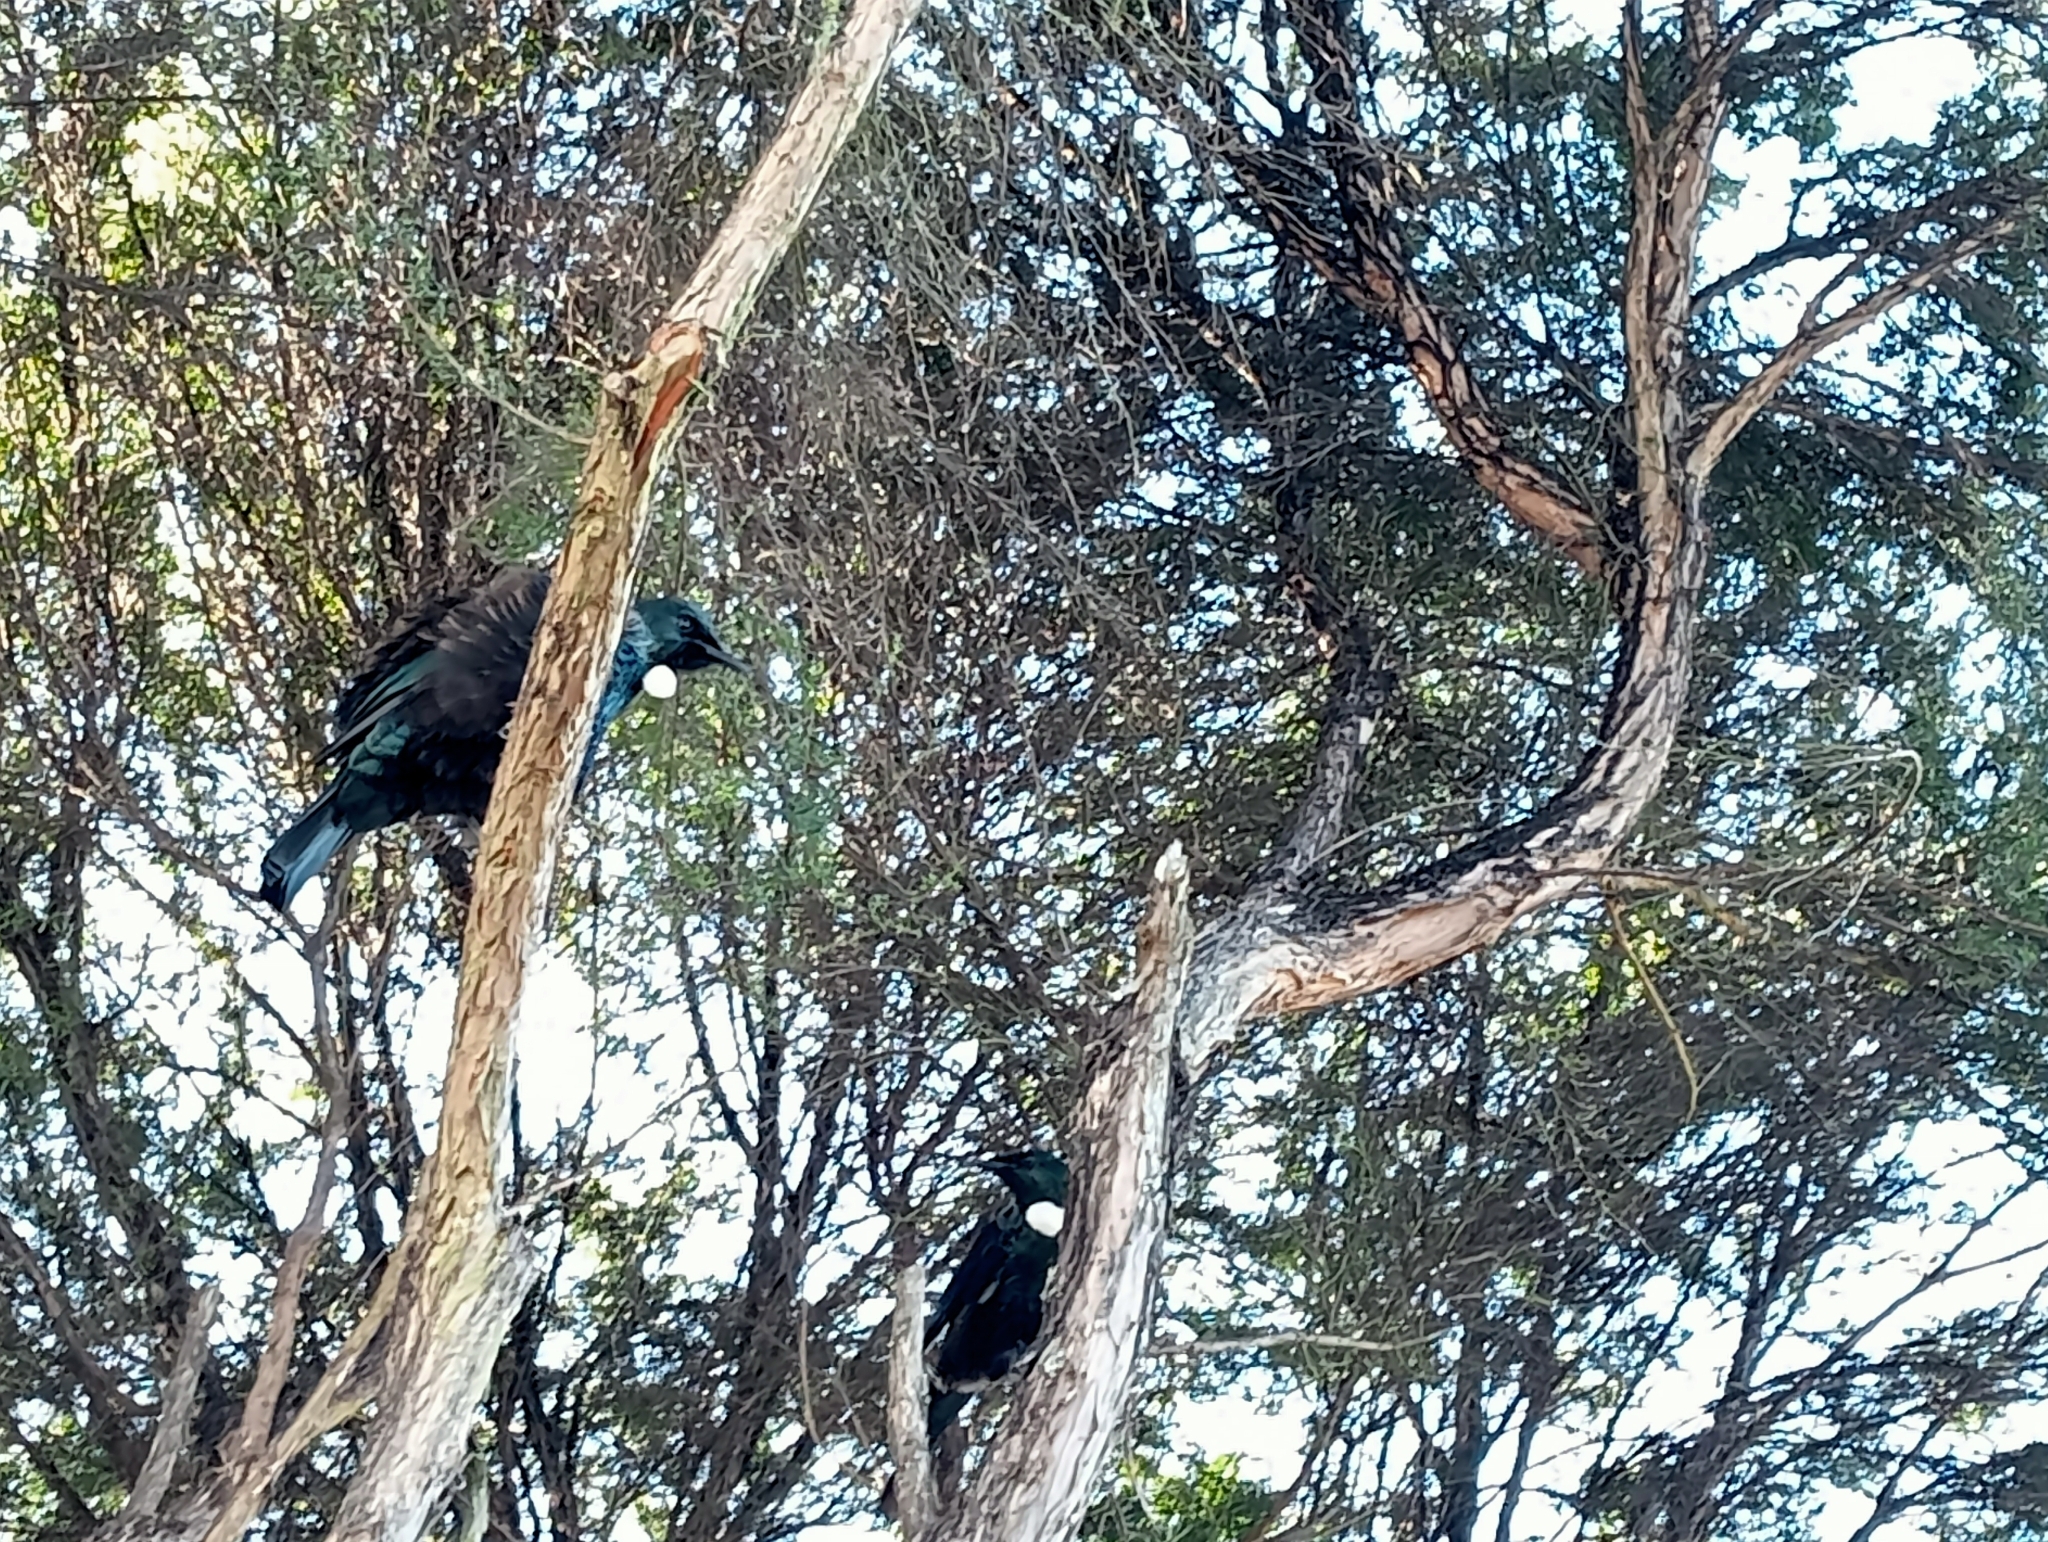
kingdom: Animalia
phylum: Chordata
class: Aves
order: Passeriformes
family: Meliphagidae
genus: Prosthemadera
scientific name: Prosthemadera novaeseelandiae
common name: Tui
